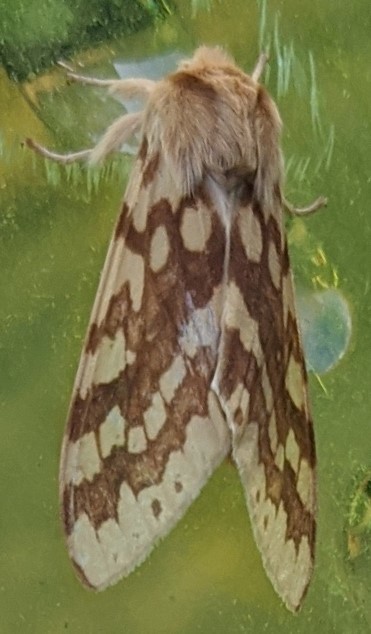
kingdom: Animalia
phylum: Arthropoda
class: Insecta
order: Lepidoptera
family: Erebidae
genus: Lophocampa
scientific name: Lophocampa maculata
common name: Spotted tussock moth
